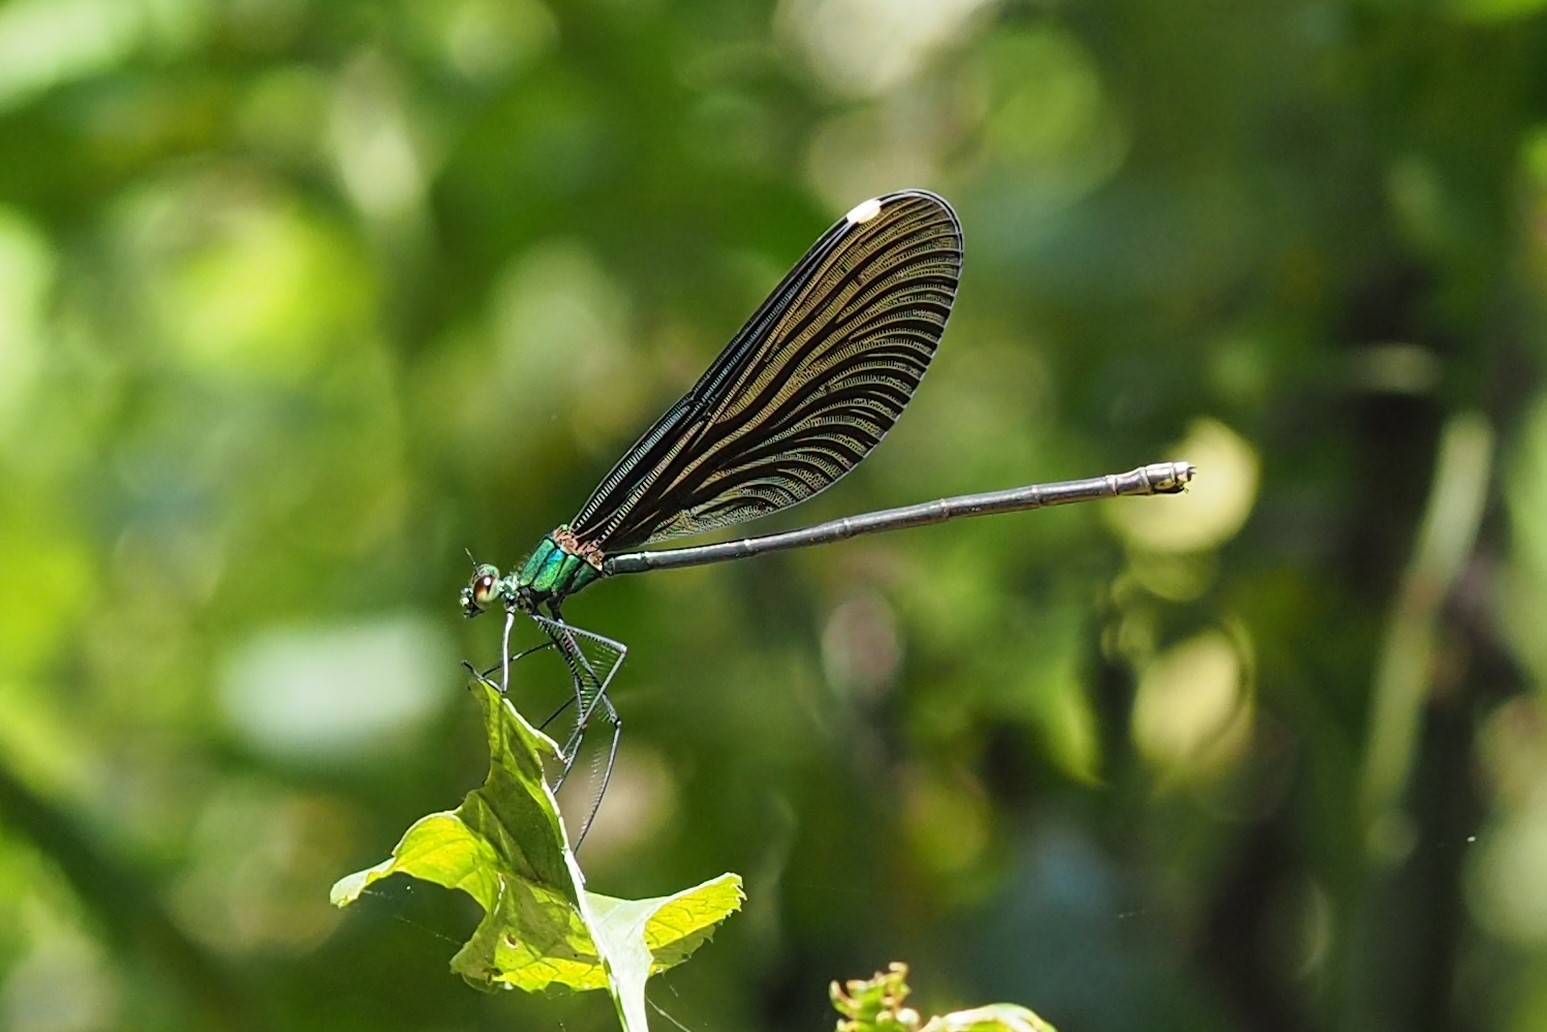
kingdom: Animalia
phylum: Arthropoda
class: Insecta
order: Odonata
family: Calopterygidae
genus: Matrona
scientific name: Matrona cyanoptera
